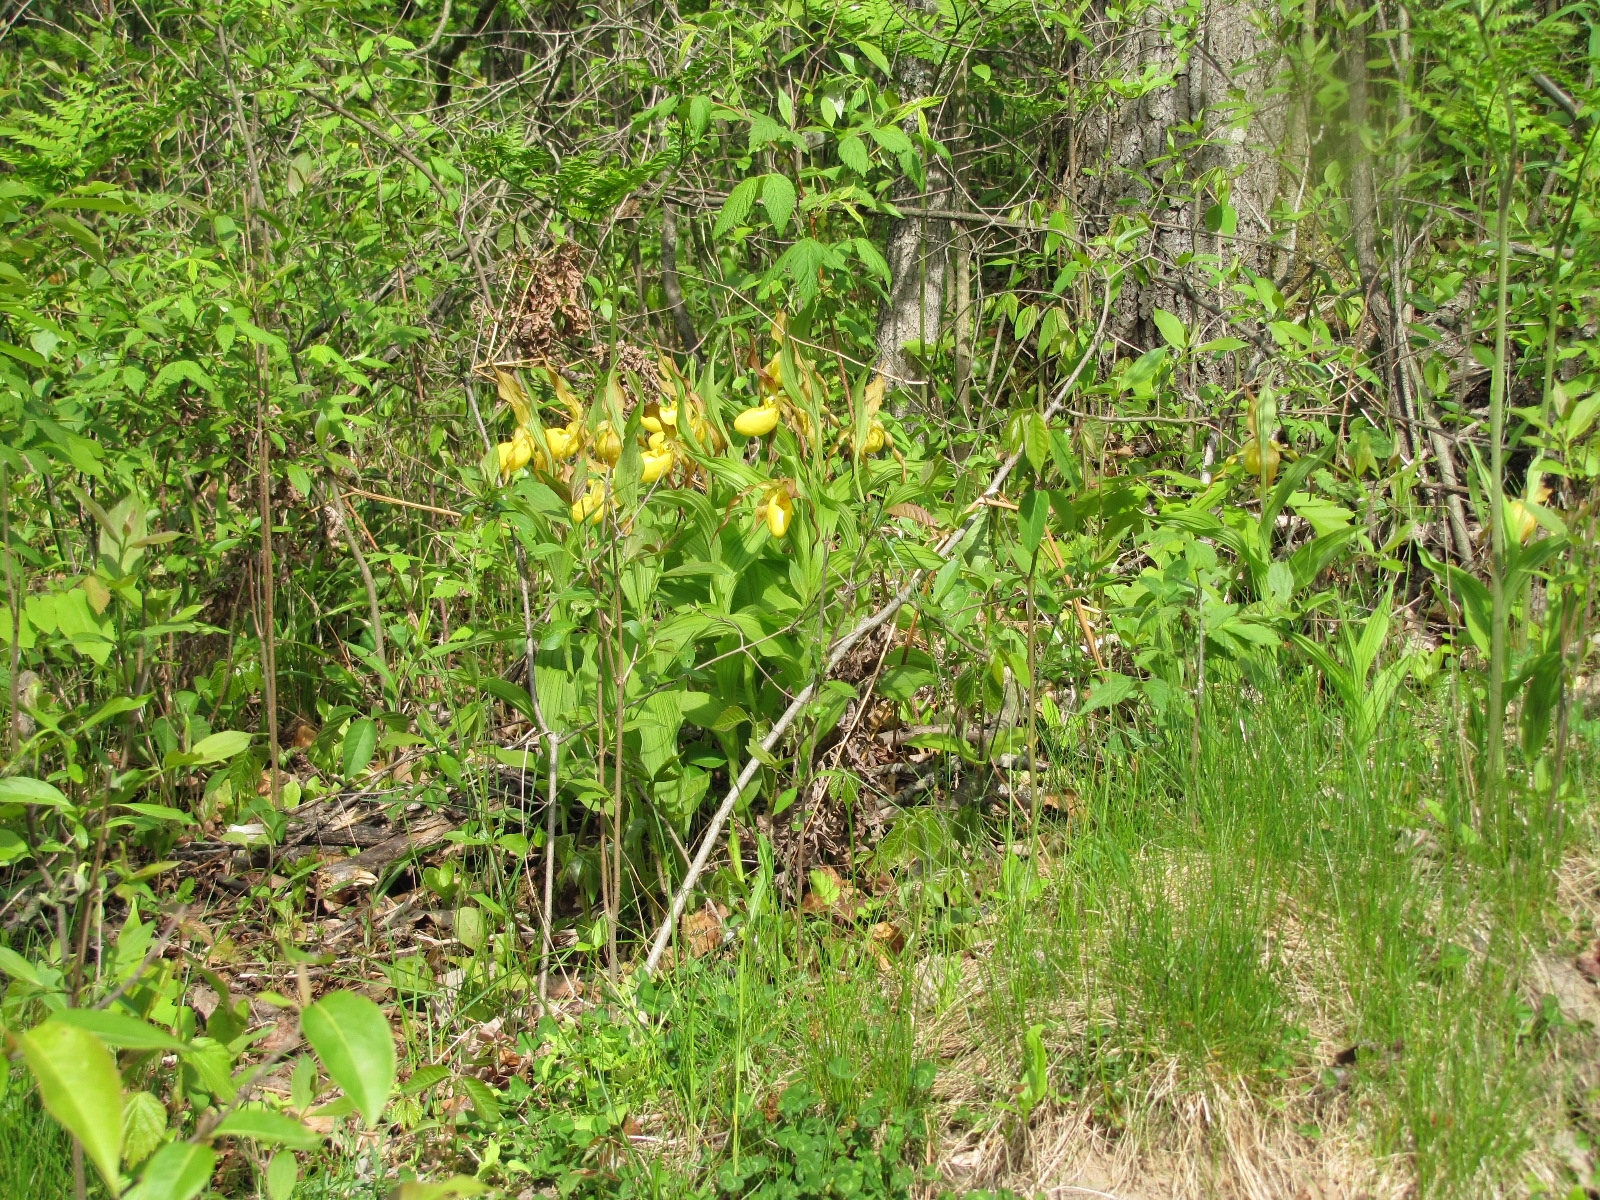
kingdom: Plantae
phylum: Tracheophyta
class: Liliopsida
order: Asparagales
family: Orchidaceae
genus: Cypripedium
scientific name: Cypripedium parviflorum
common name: American yellow lady's-slipper
